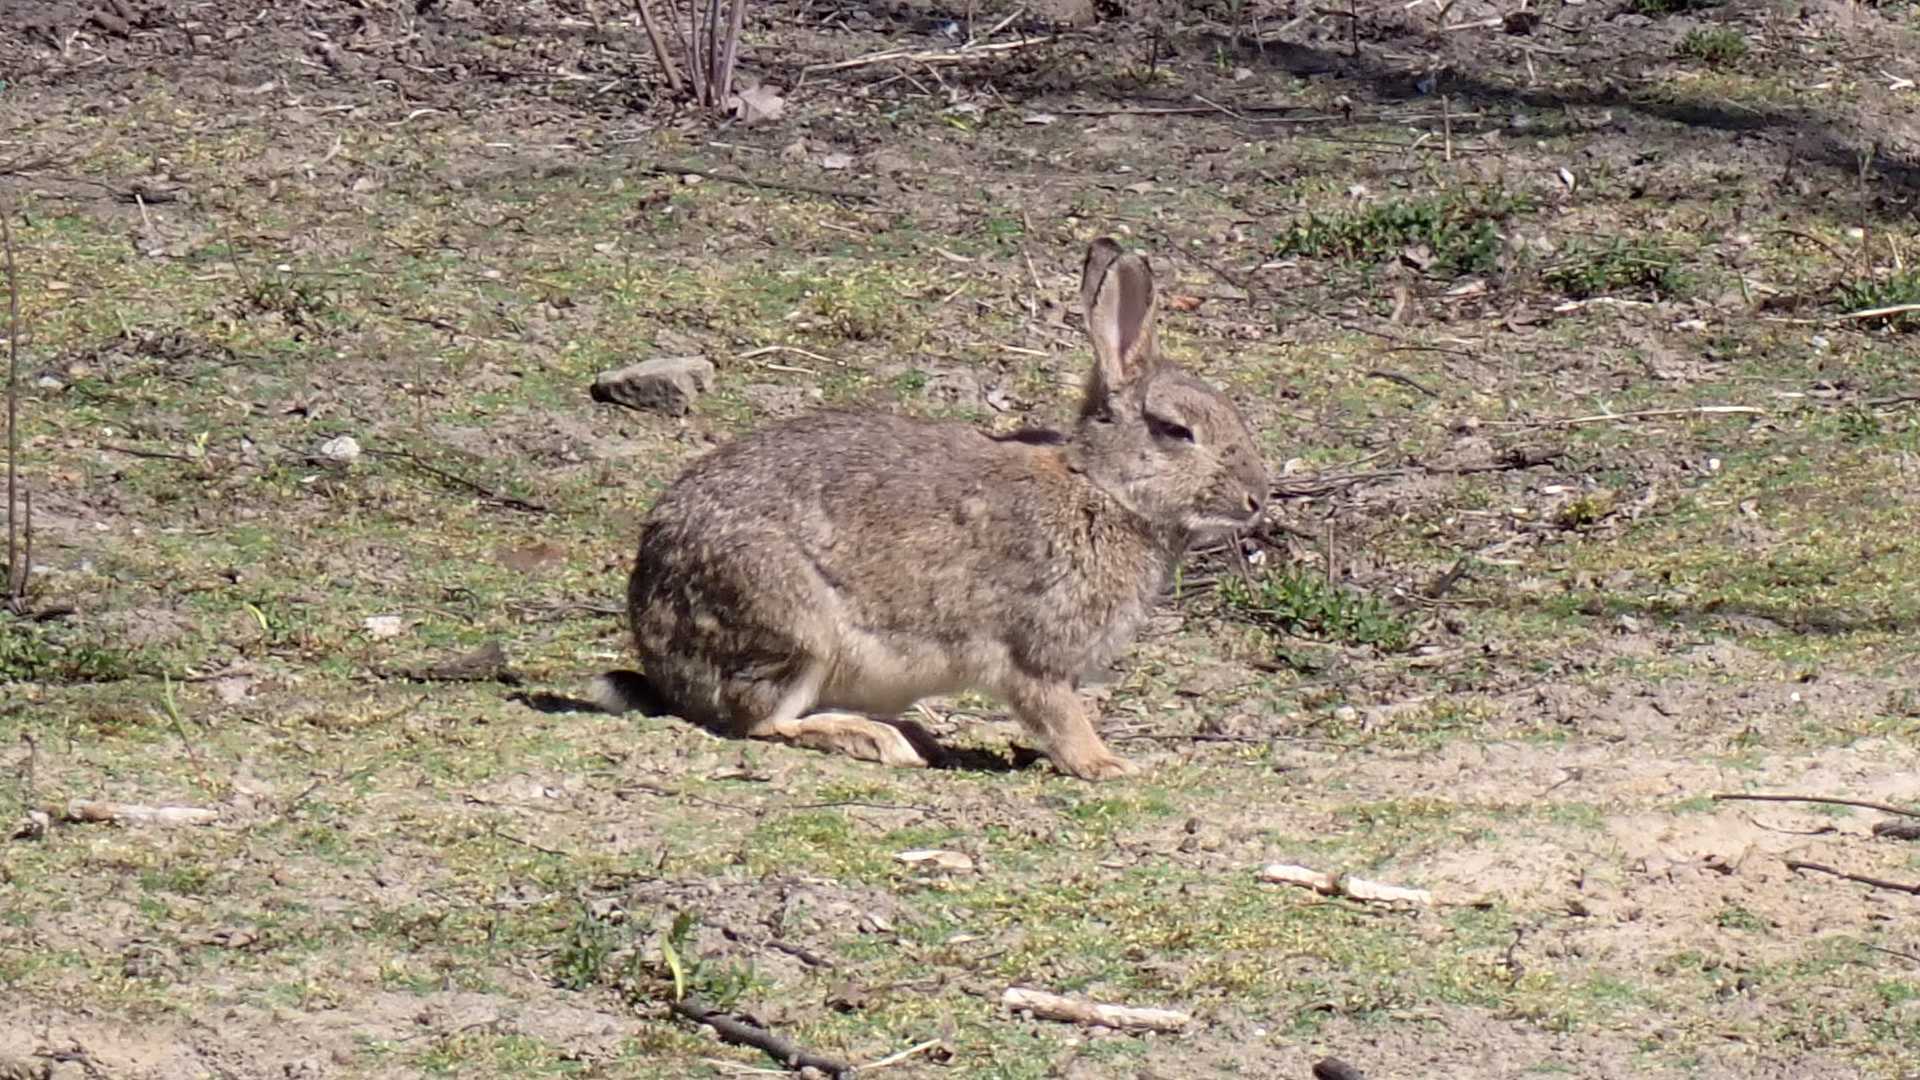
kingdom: Animalia
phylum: Chordata
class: Mammalia
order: Lagomorpha
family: Leporidae
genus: Oryctolagus
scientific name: Oryctolagus cuniculus
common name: European rabbit
